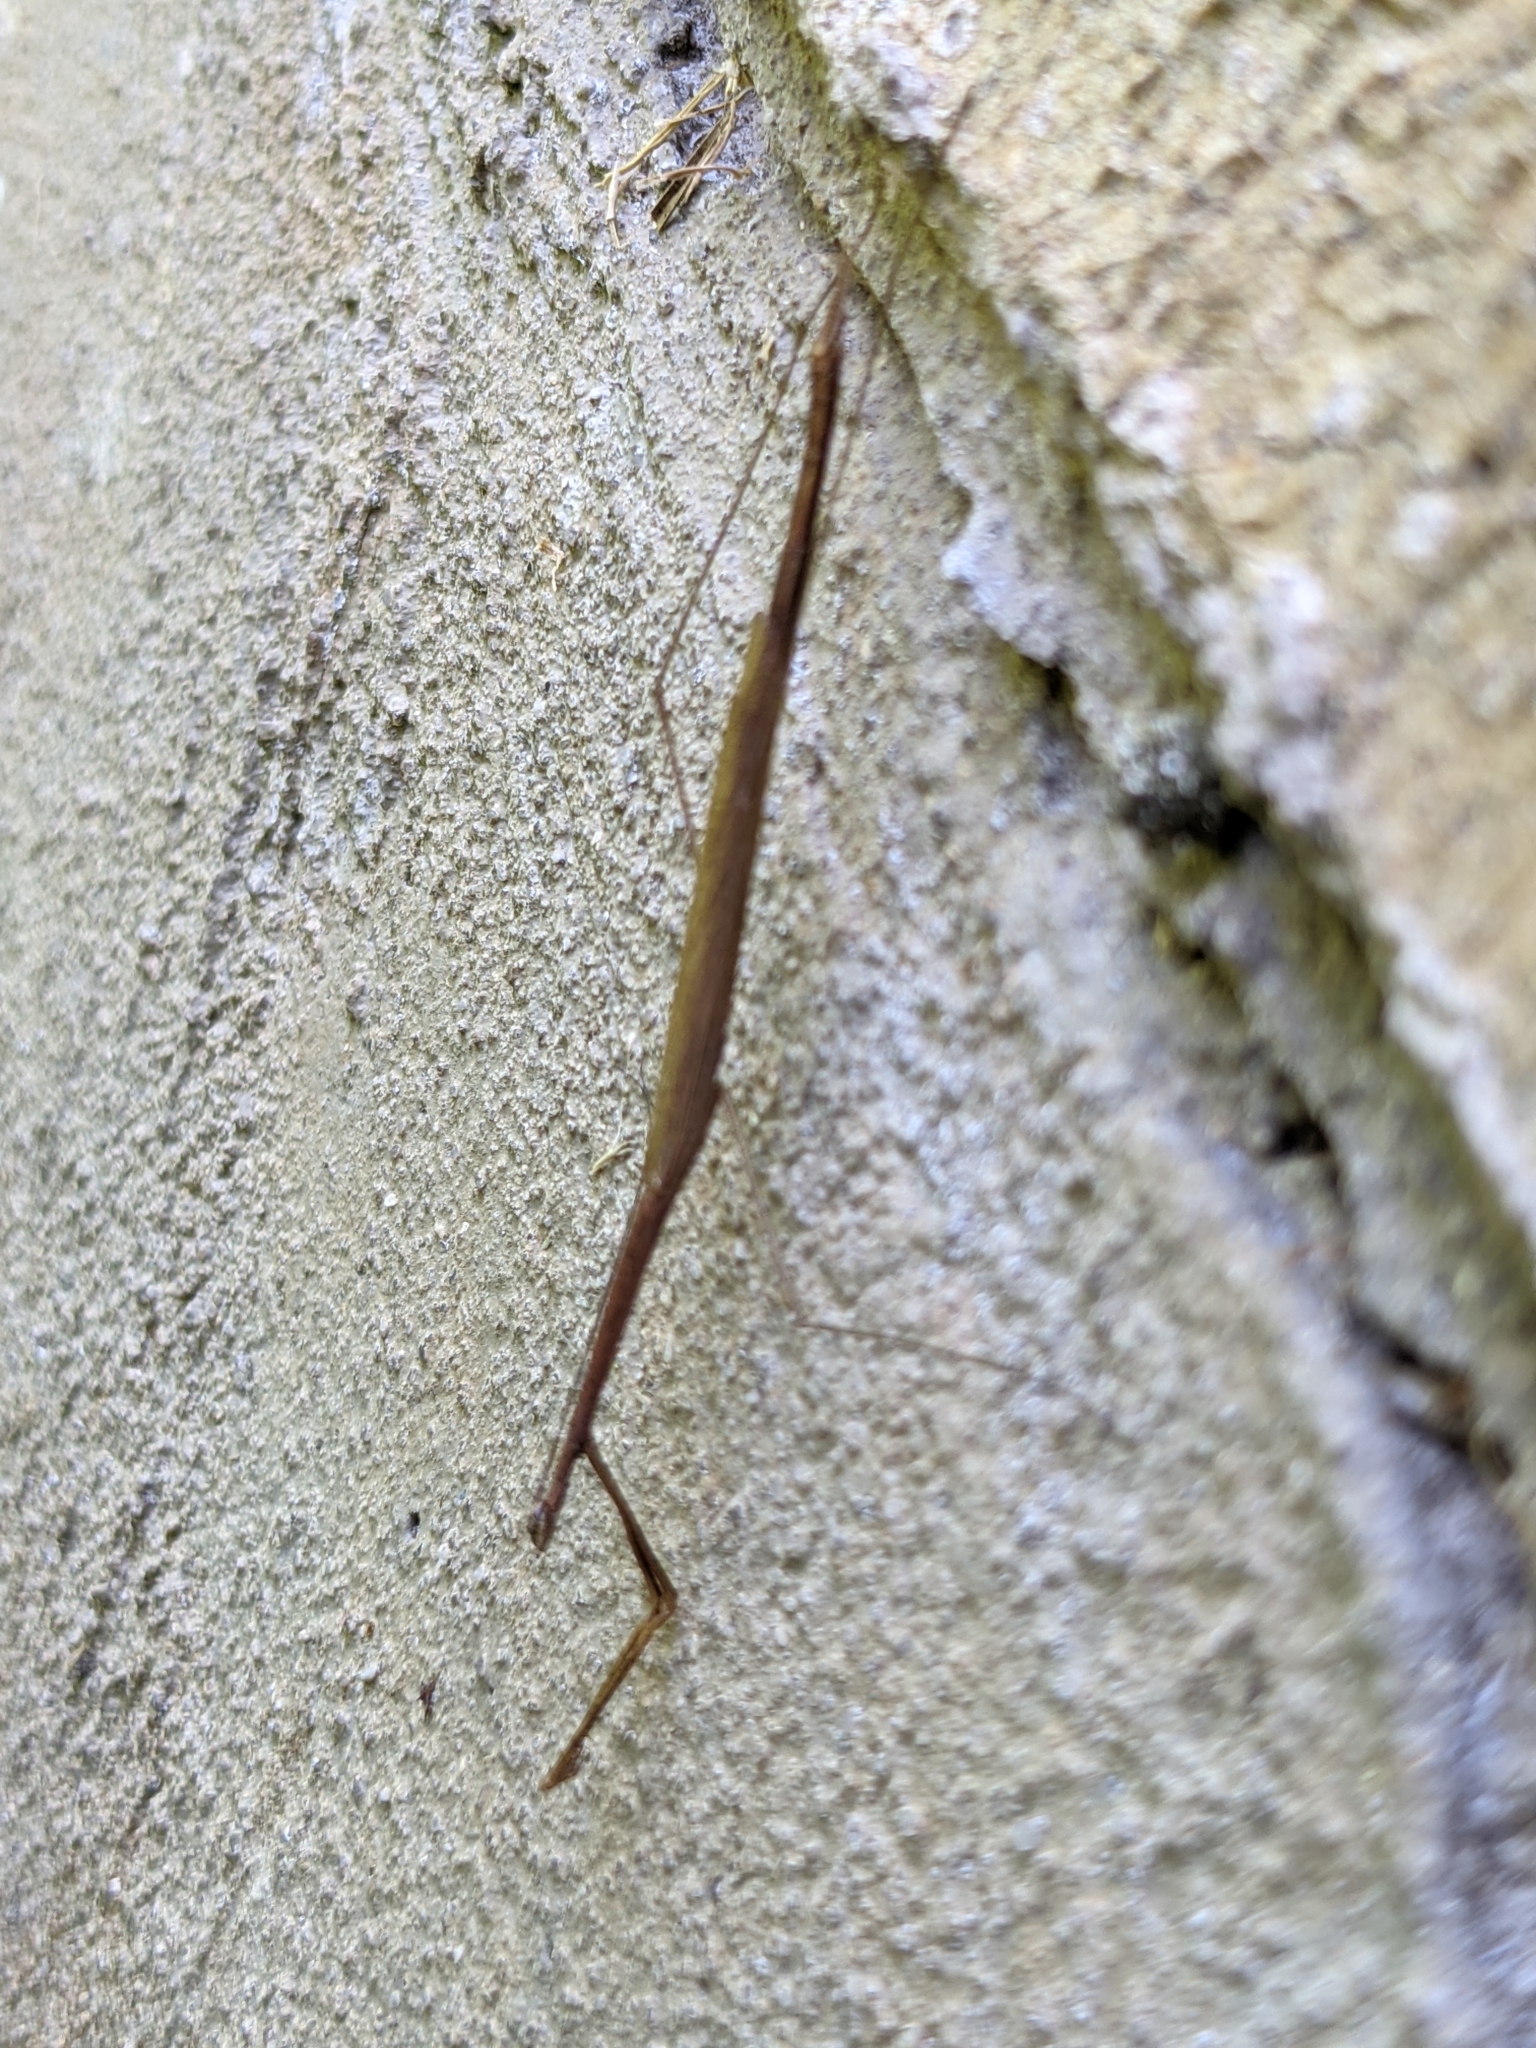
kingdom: Animalia
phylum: Arthropoda
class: Insecta
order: Mantodea
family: Thespidae
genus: Thesprotia
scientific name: Thesprotia graminis
